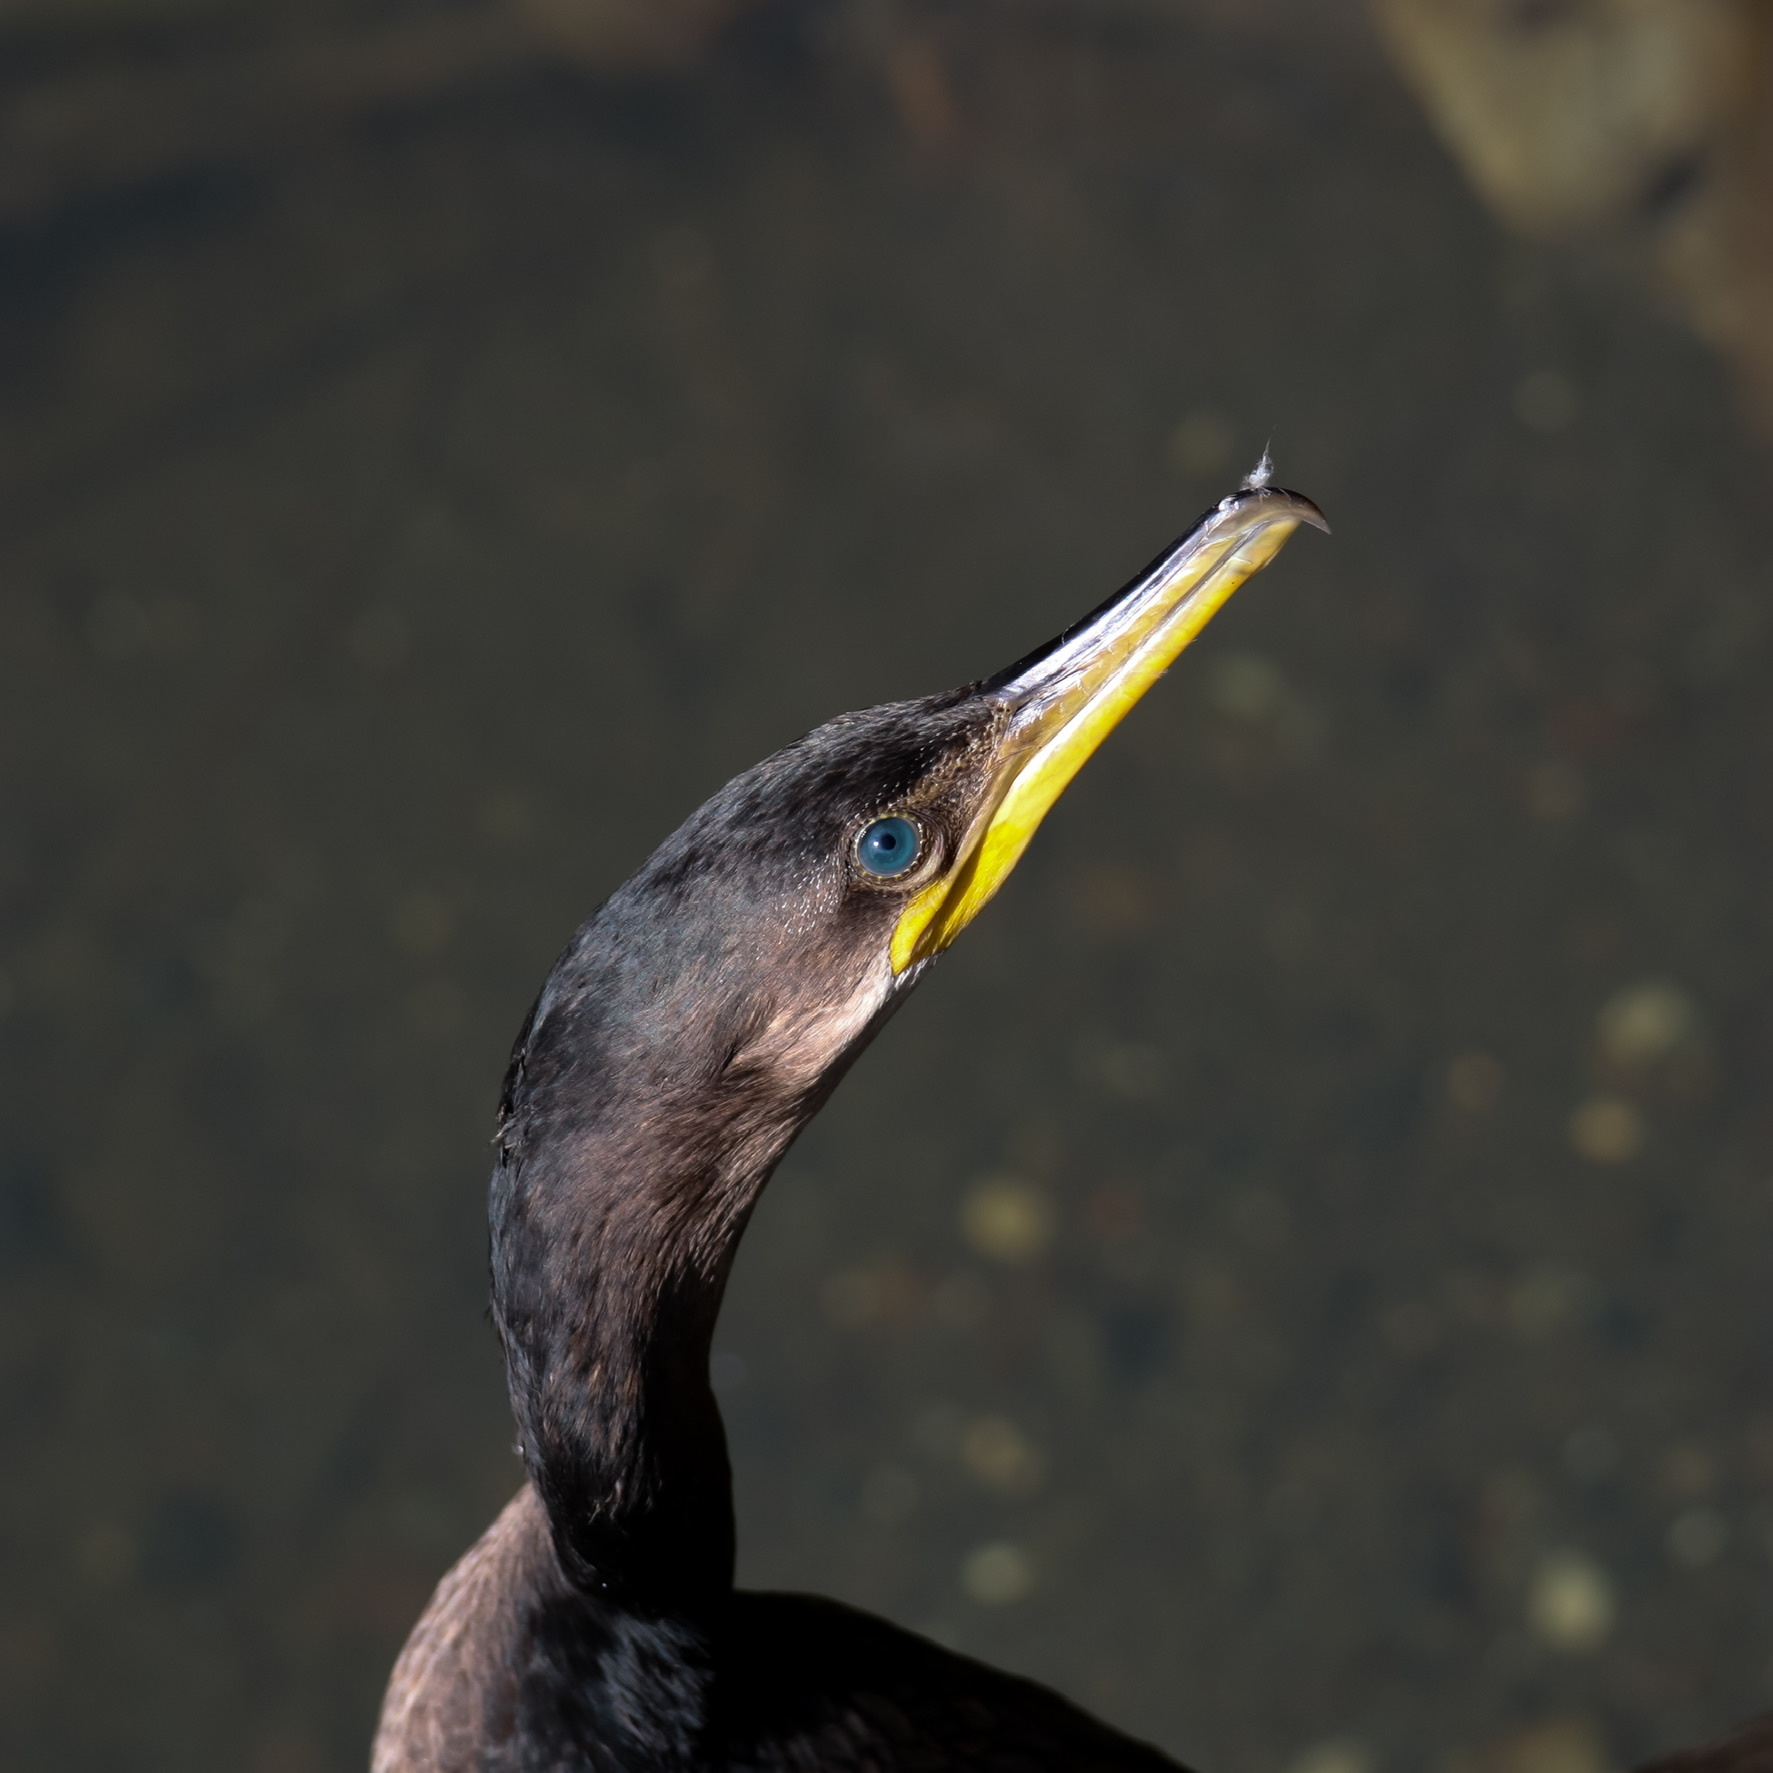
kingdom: Animalia
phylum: Chordata
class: Aves
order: Suliformes
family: Phalacrocoracidae
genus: Phalacrocorax
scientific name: Phalacrocorax brasilianus
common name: Neotropic cormorant
